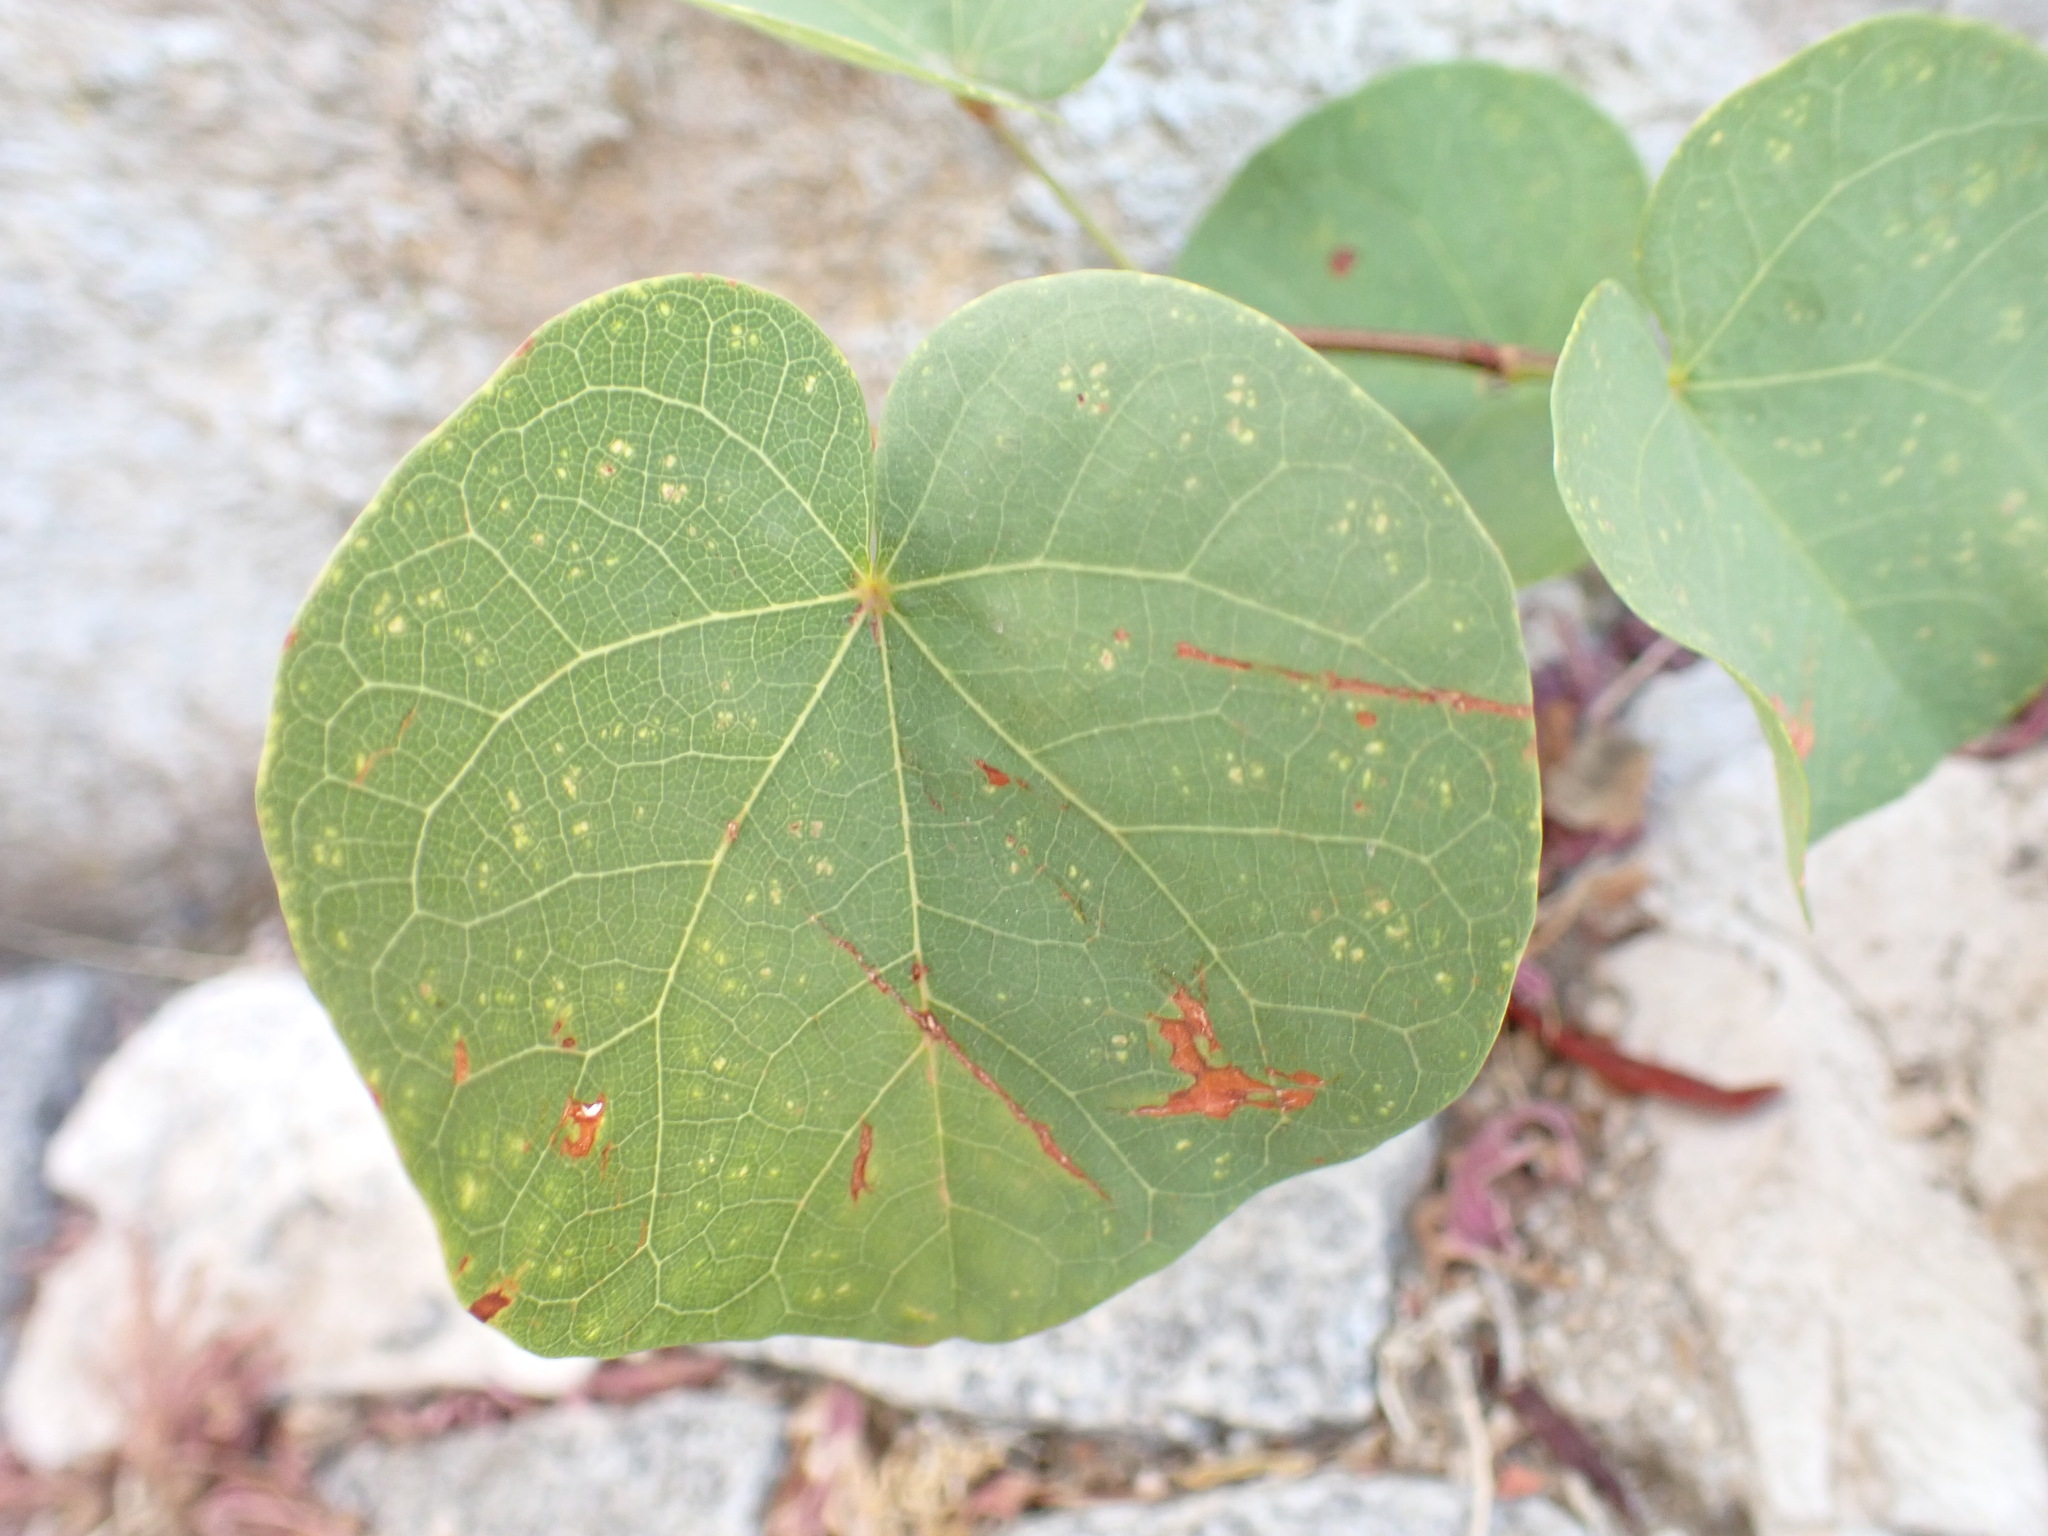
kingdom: Plantae
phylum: Tracheophyta
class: Magnoliopsida
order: Fabales
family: Fabaceae
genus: Cercis
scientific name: Cercis siliquastrum
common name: Judas tree
